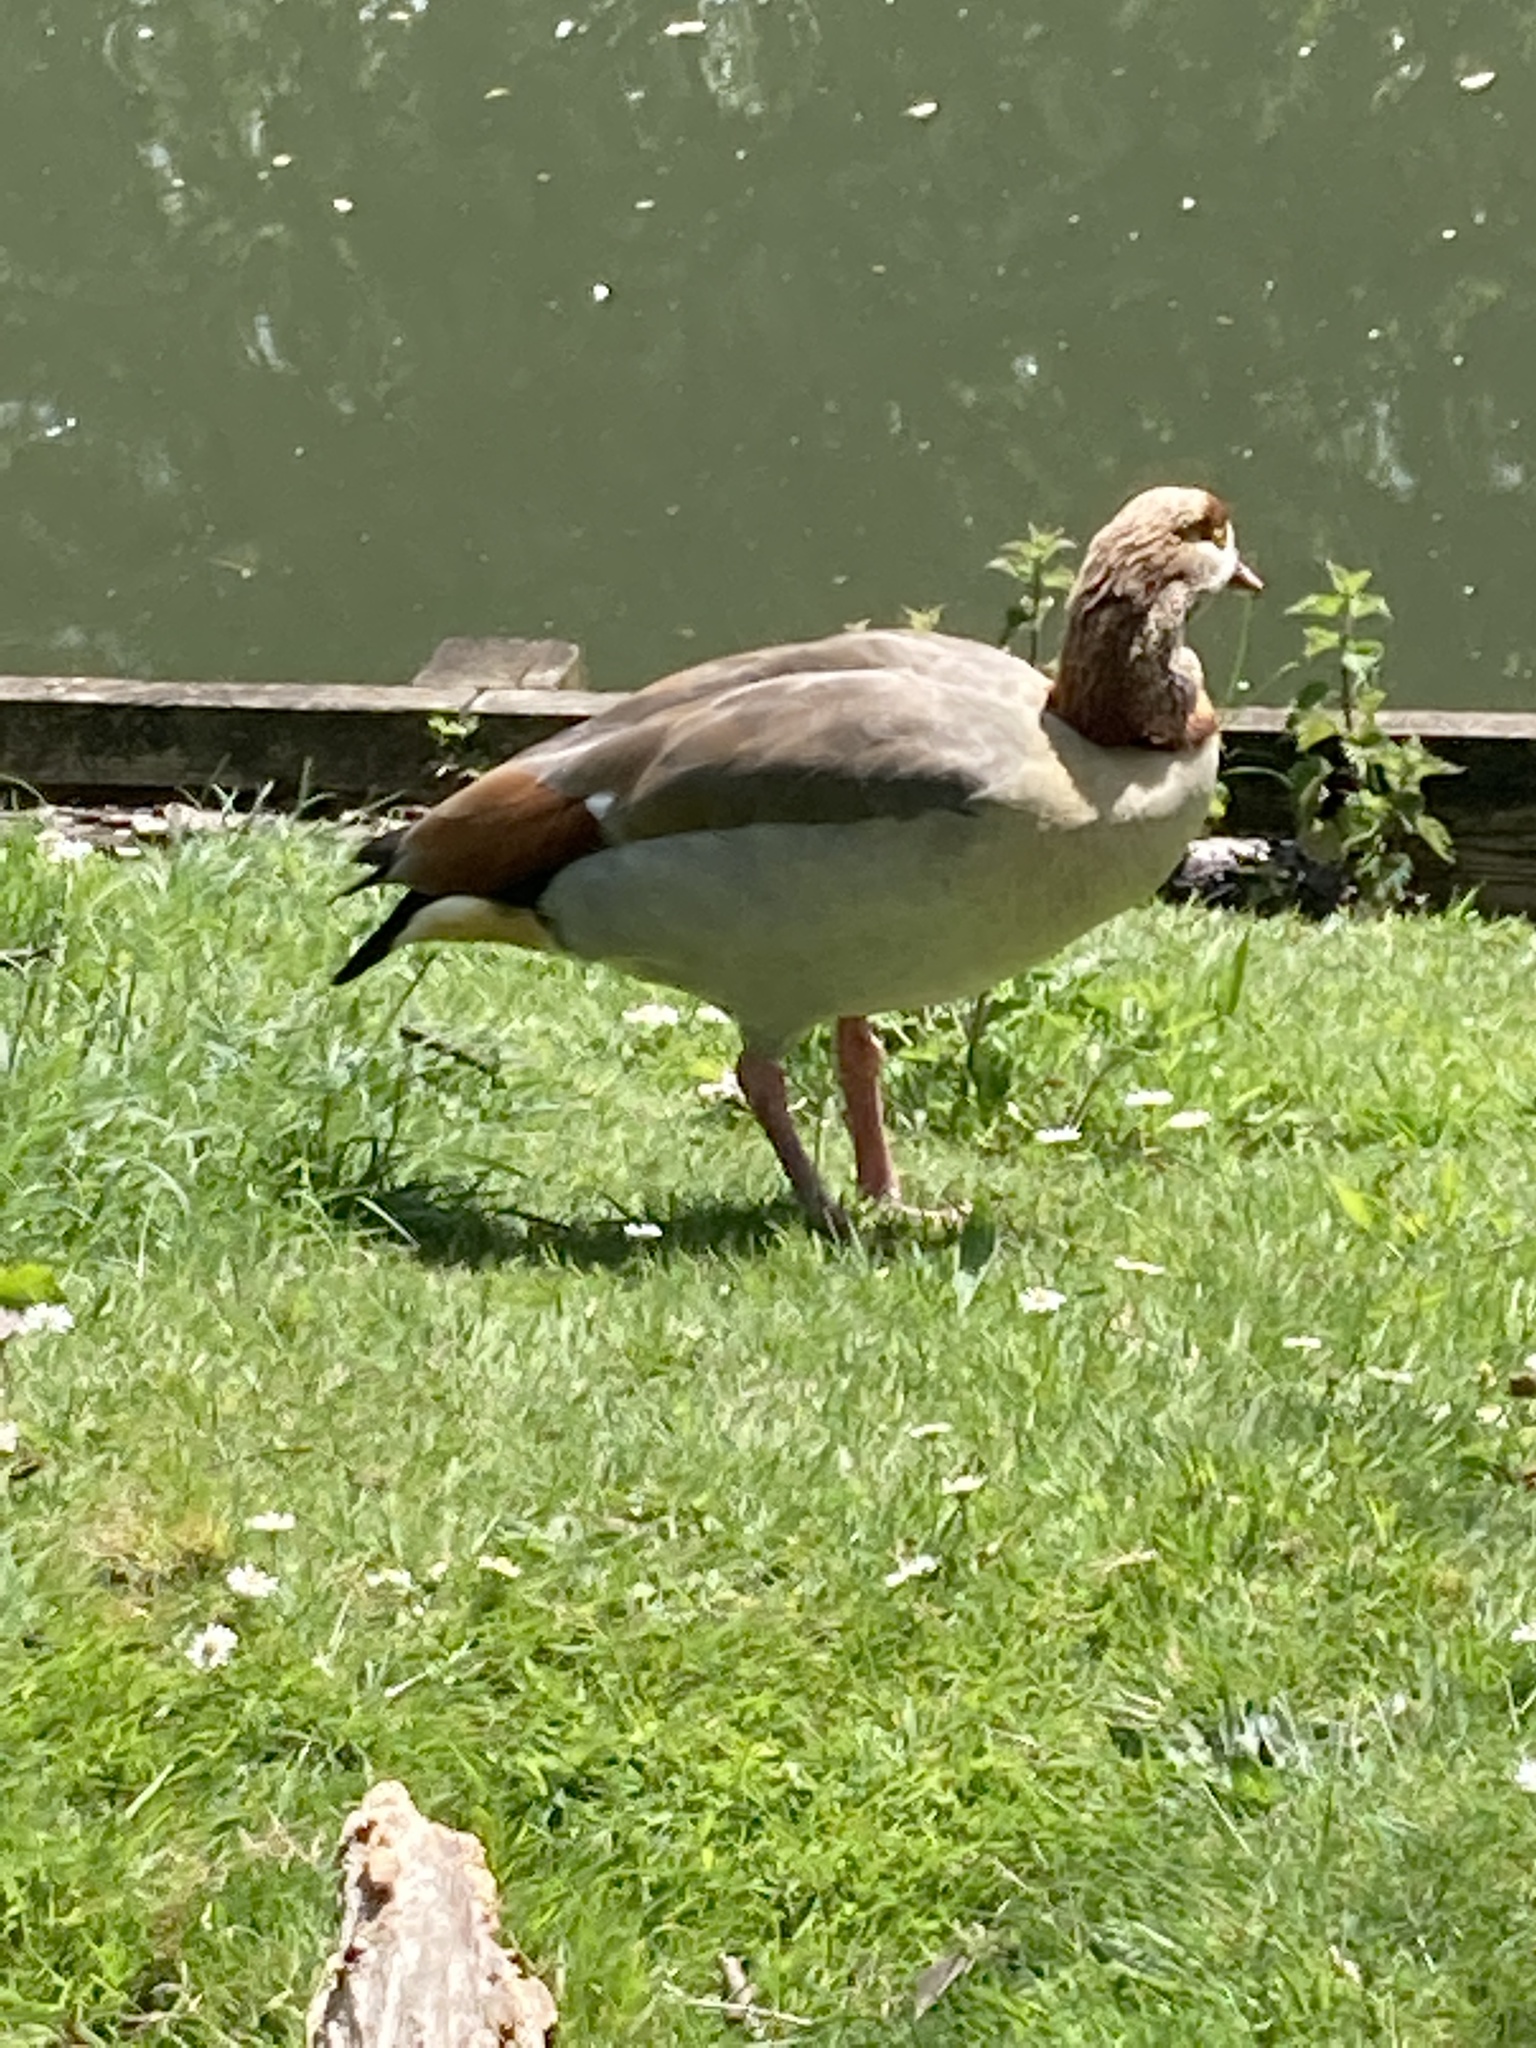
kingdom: Animalia
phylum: Chordata
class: Aves
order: Anseriformes
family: Anatidae
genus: Alopochen
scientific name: Alopochen aegyptiaca
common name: Egyptian goose
